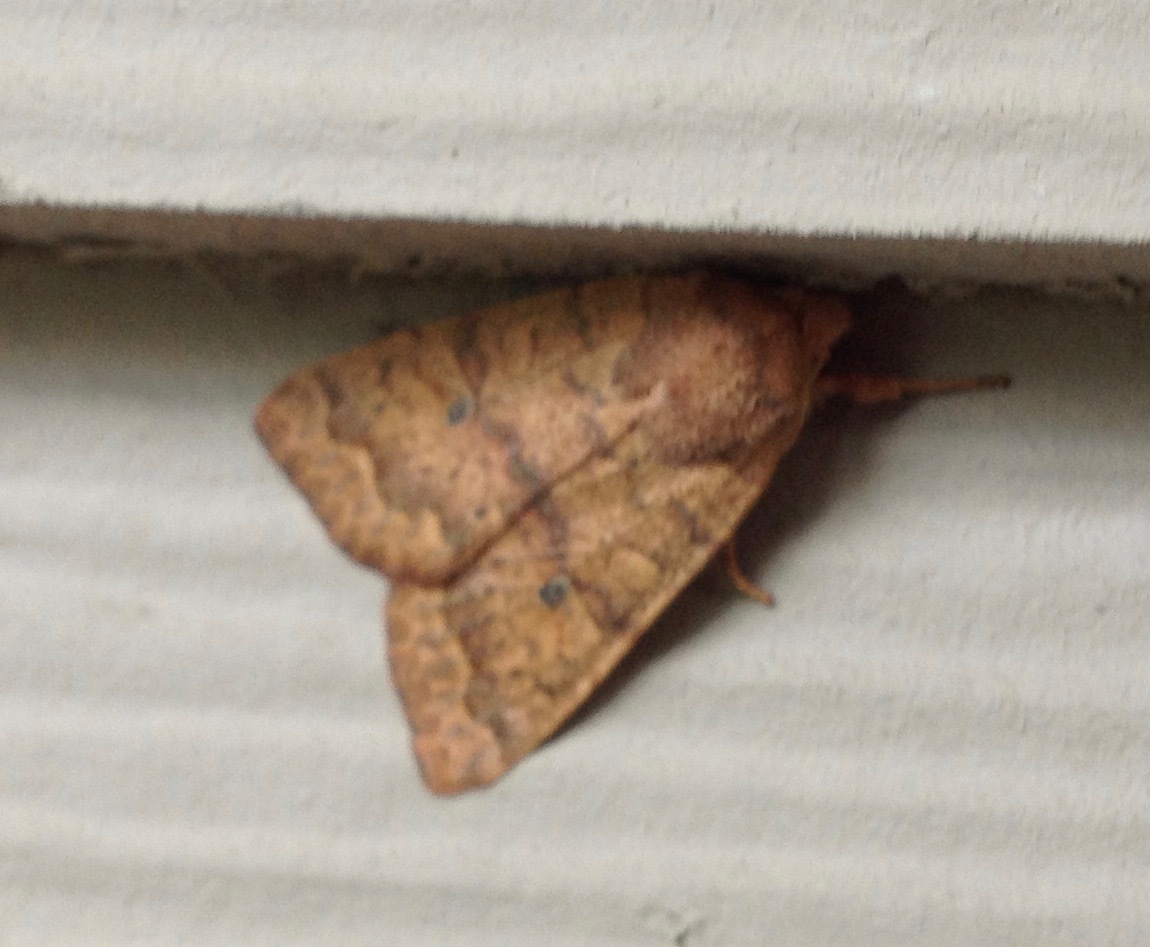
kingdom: Animalia
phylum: Arthropoda
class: Insecta
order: Lepidoptera
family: Noctuidae
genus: Agrochola
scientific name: Agrochola bicolorago
